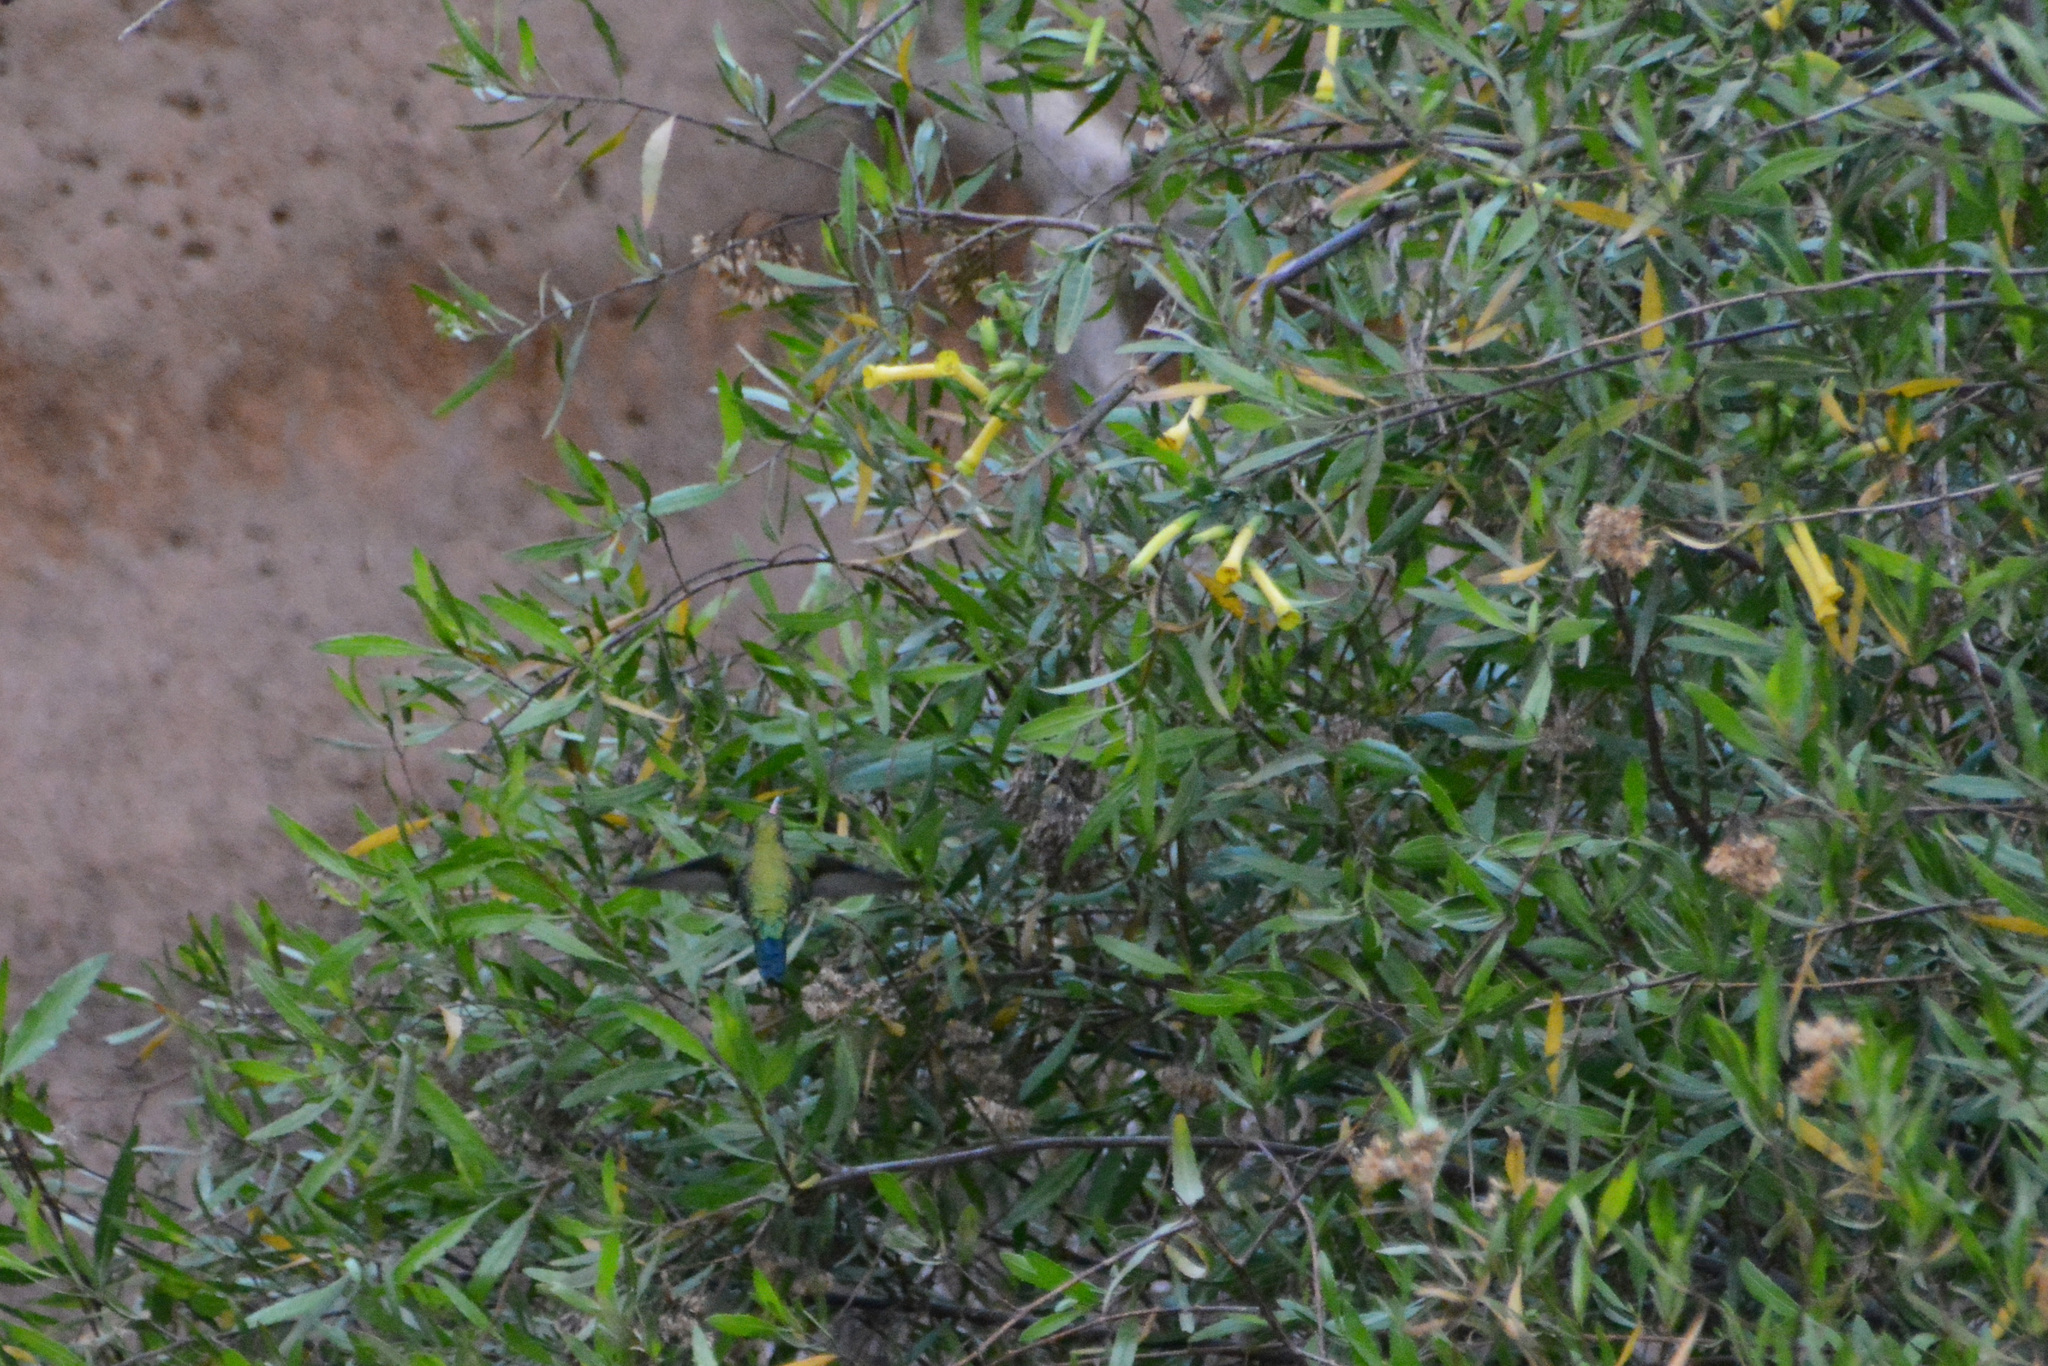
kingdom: Plantae
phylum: Tracheophyta
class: Magnoliopsida
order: Solanales
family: Solanaceae
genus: Nicotiana
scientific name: Nicotiana glauca
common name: Tree tobacco
